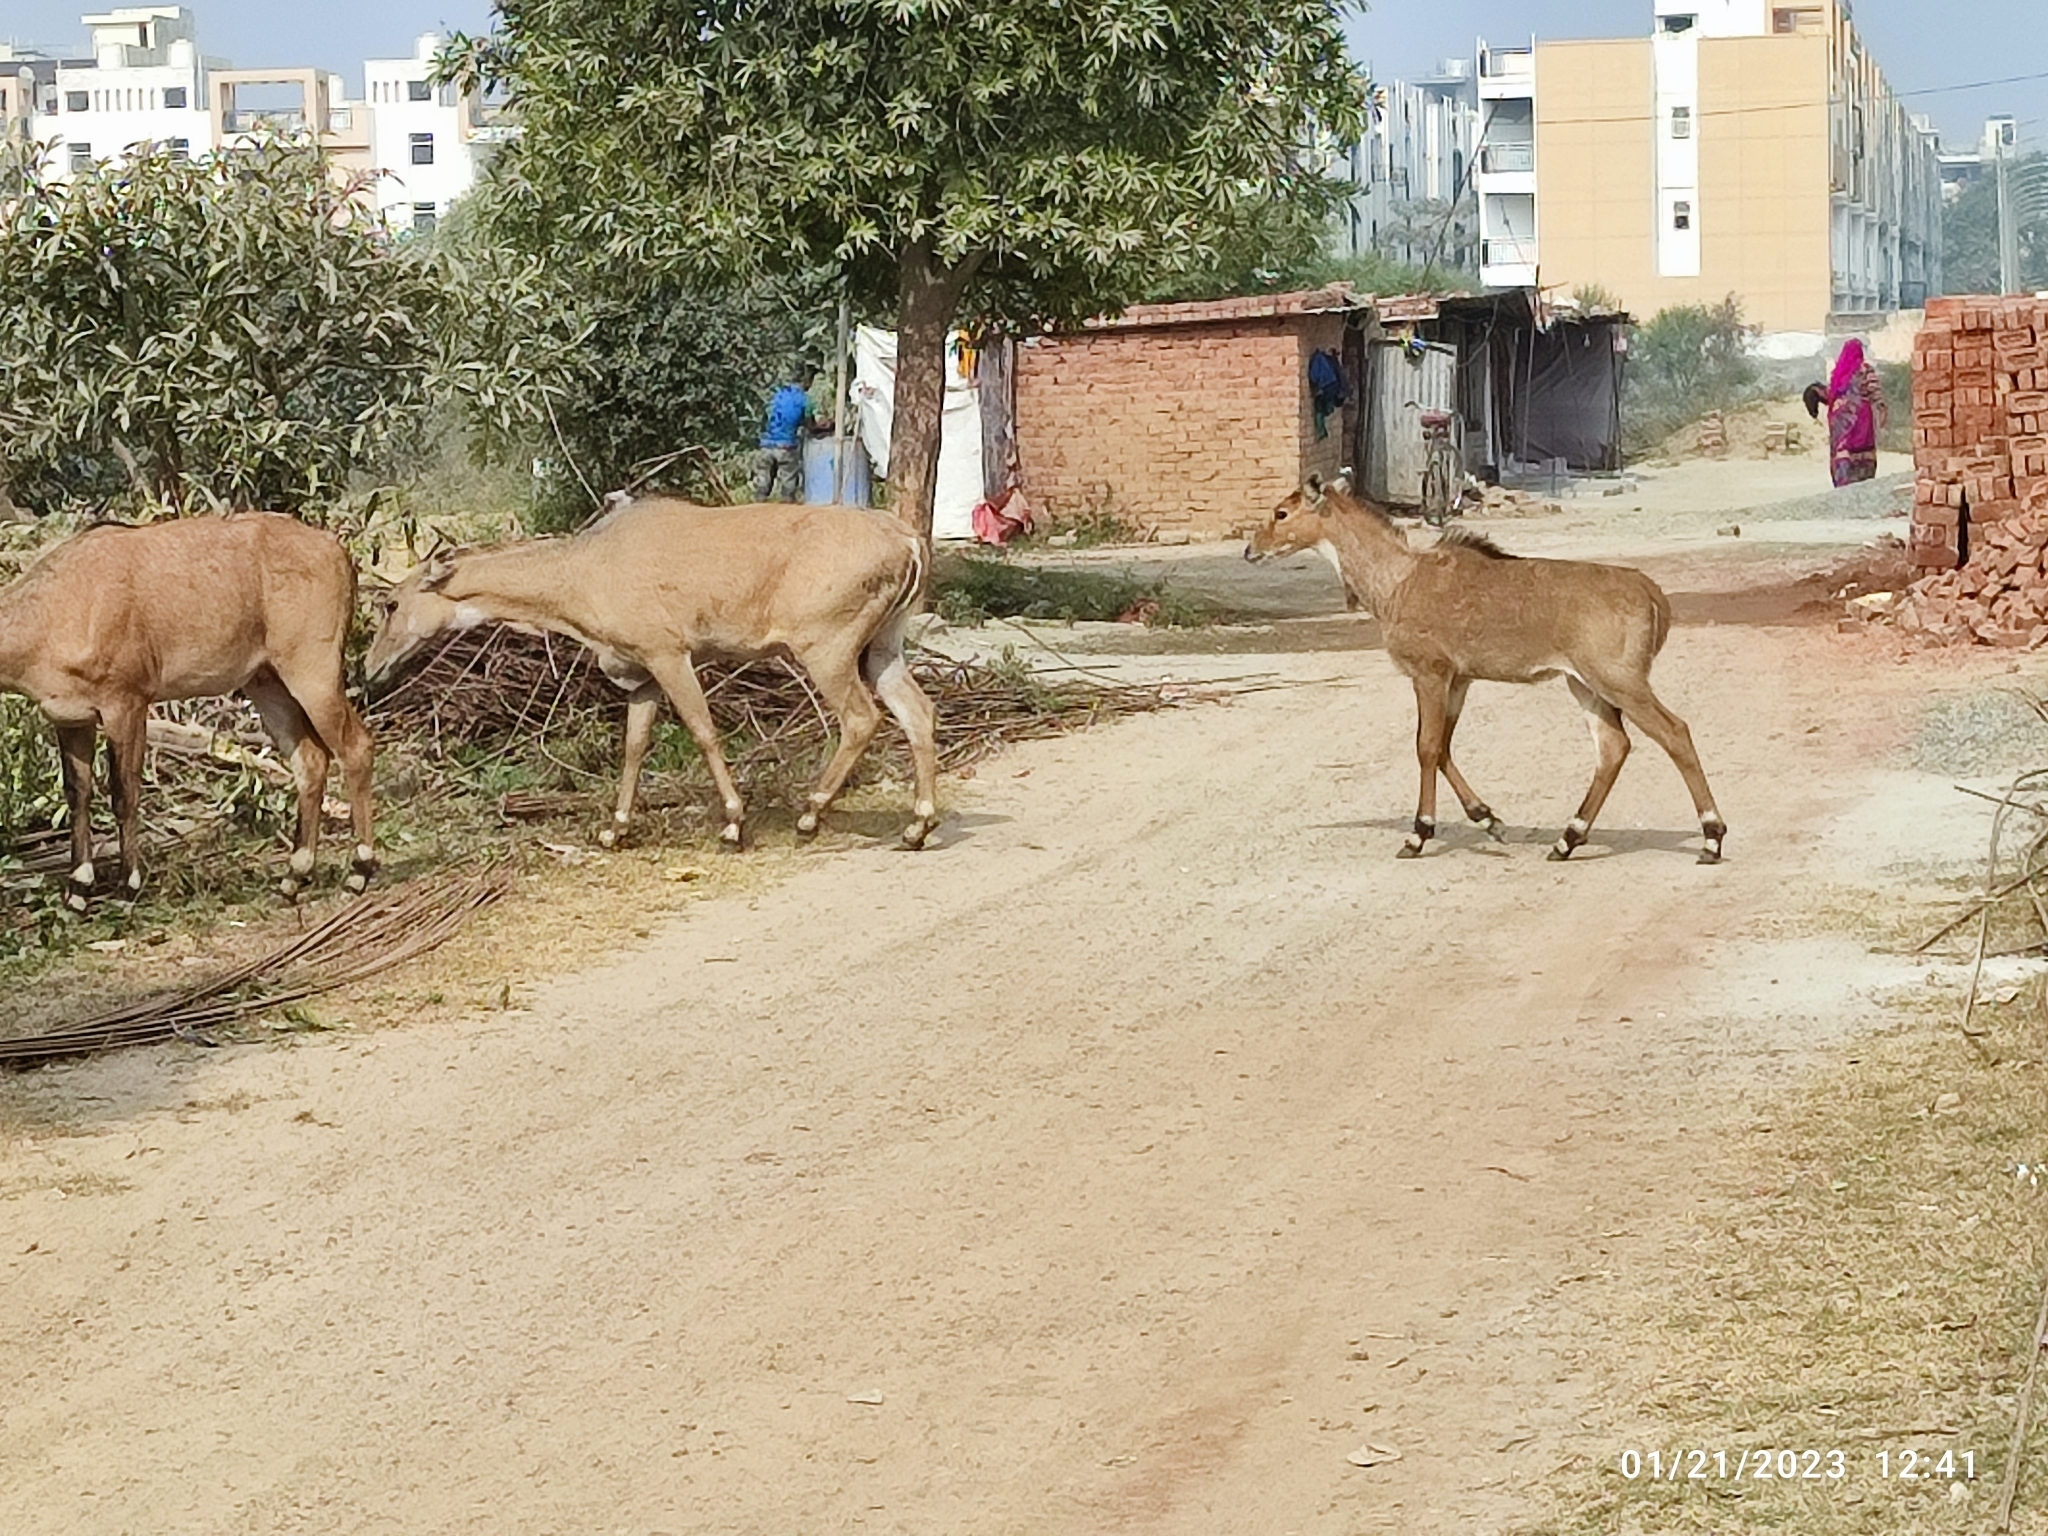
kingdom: Animalia
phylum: Chordata
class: Mammalia
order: Artiodactyla
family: Bovidae
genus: Boselaphus
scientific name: Boselaphus tragocamelus
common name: Nilgai
